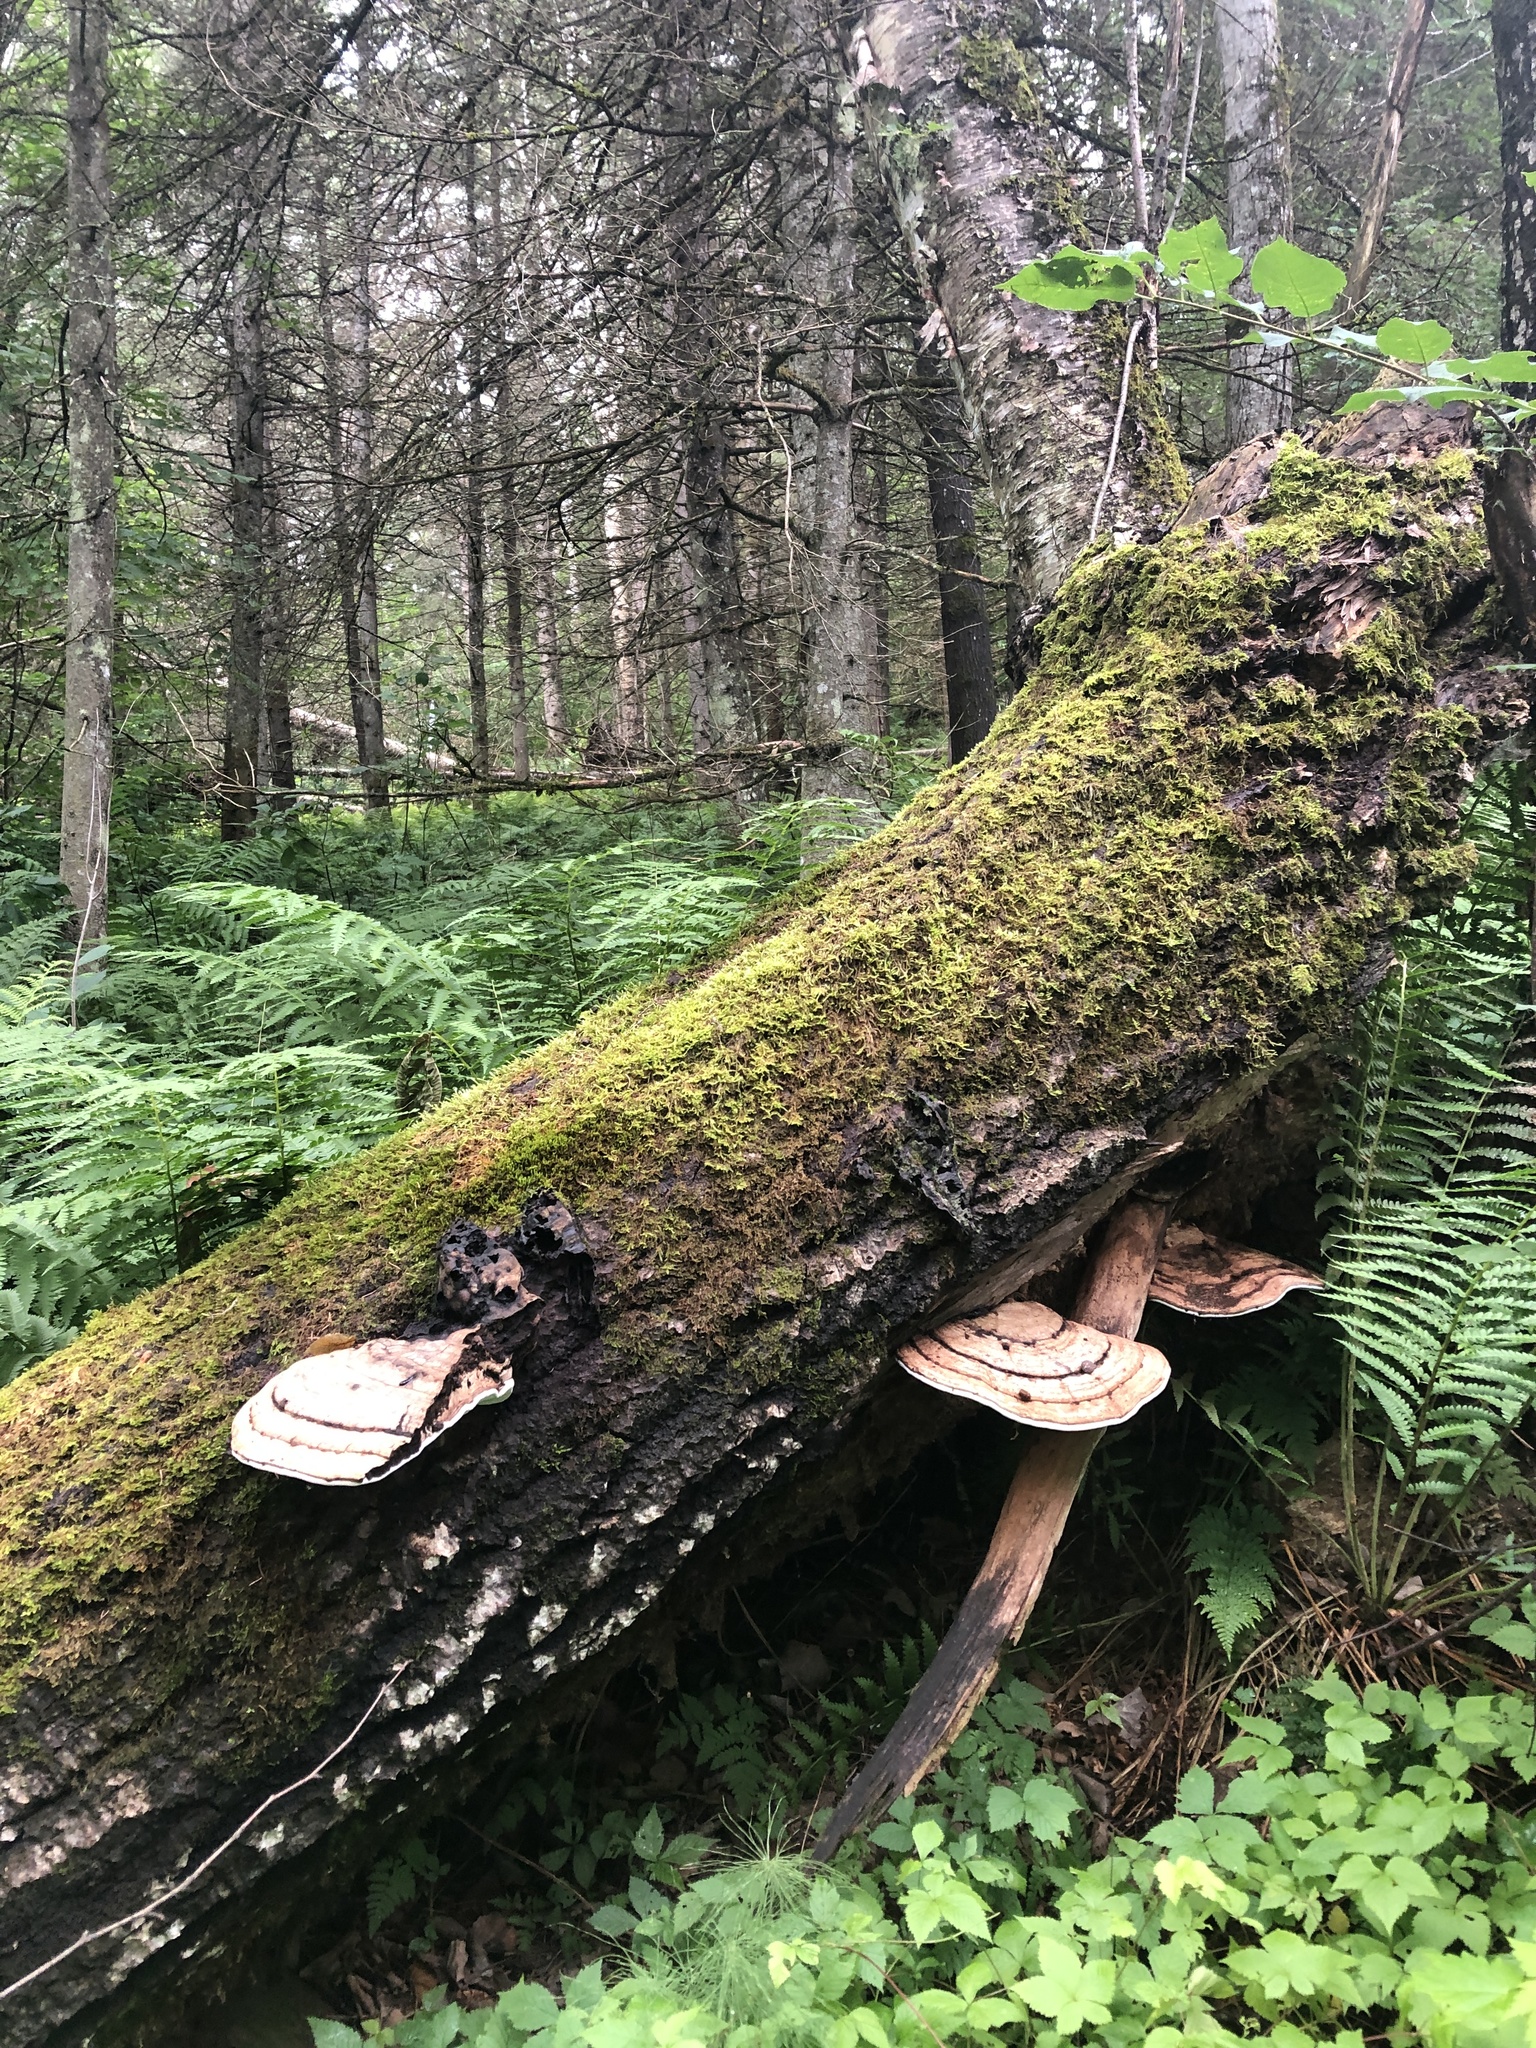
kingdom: Fungi
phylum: Basidiomycota
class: Agaricomycetes
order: Polyporales
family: Polyporaceae
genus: Ganoderma
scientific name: Ganoderma applanatum
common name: Artist's bracket
